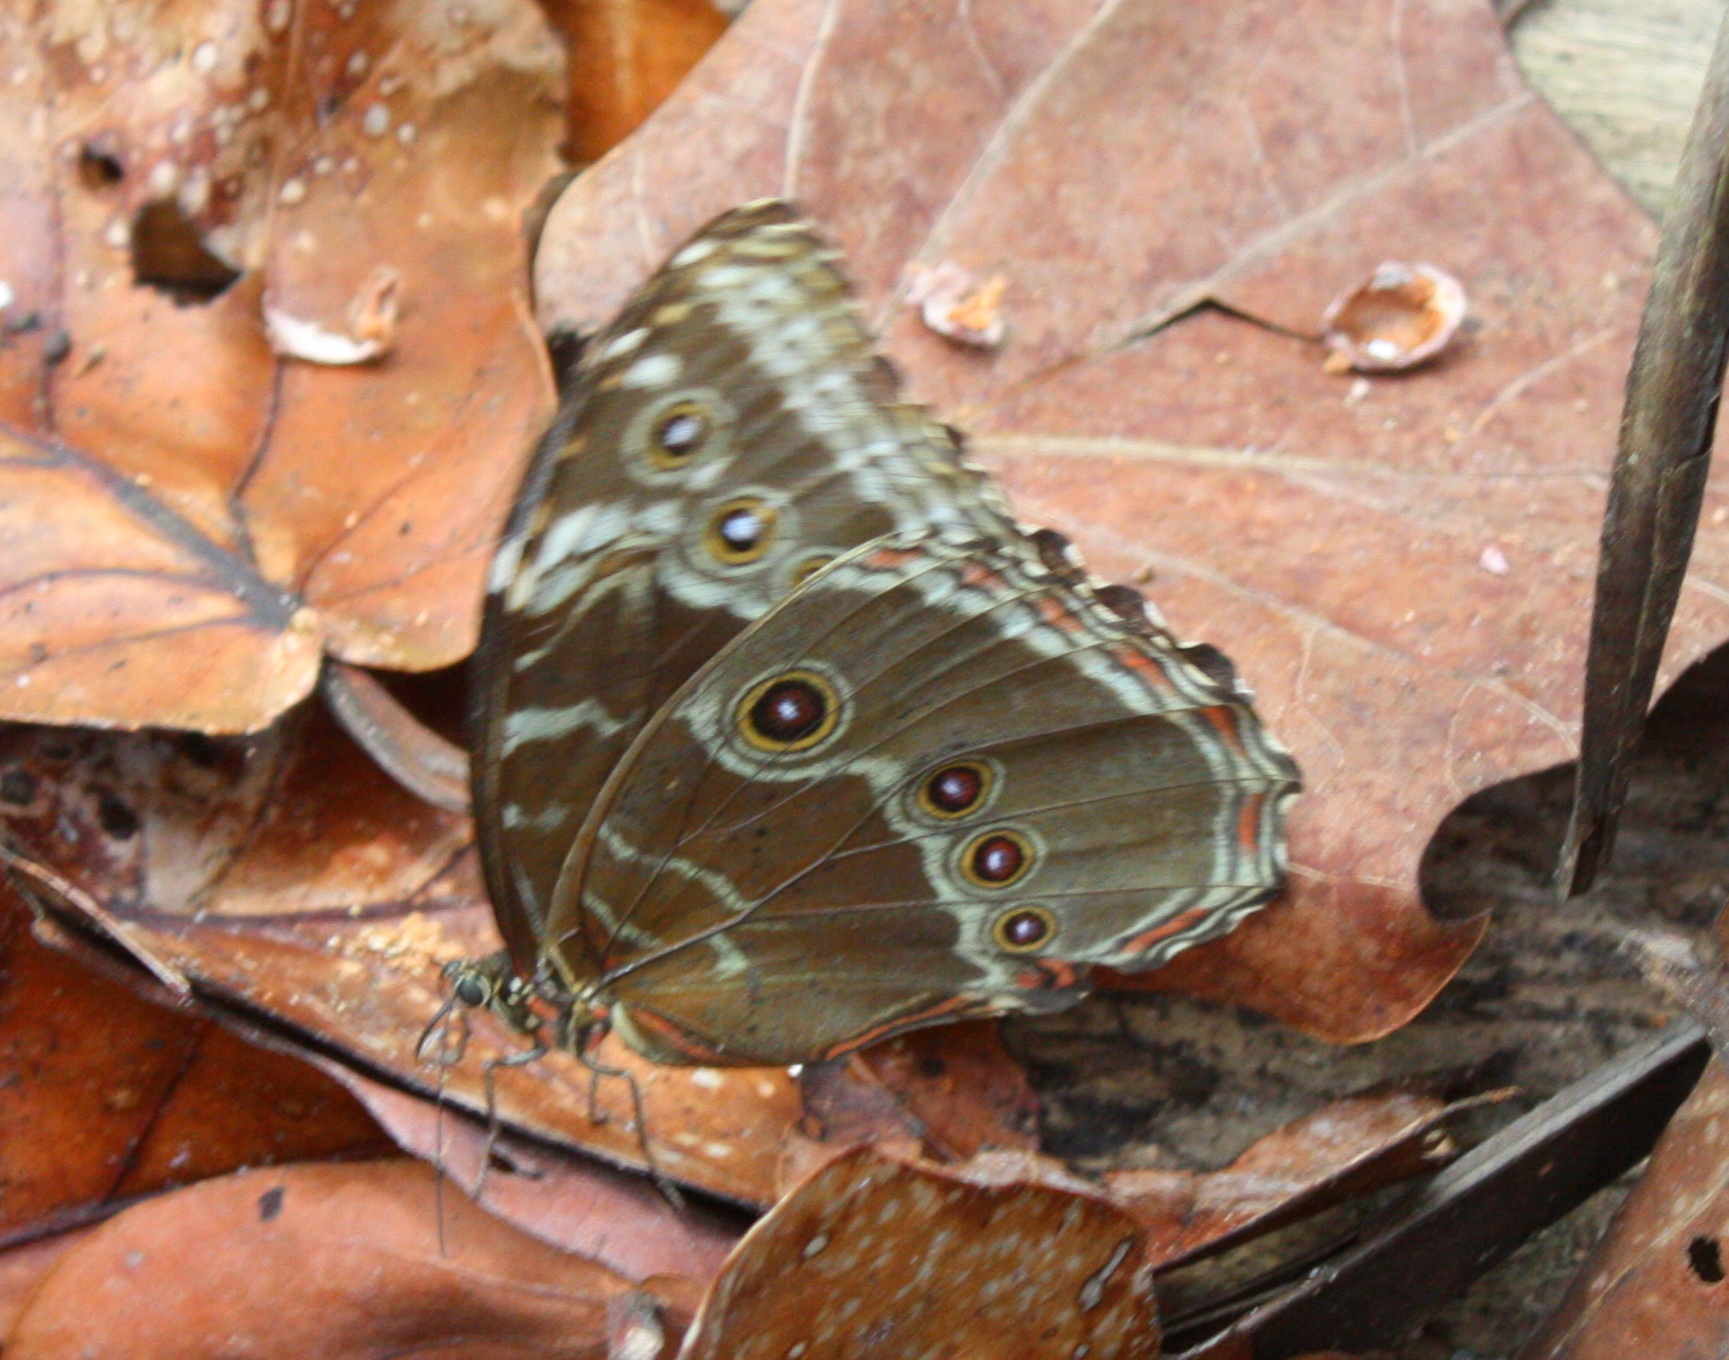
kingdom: Animalia
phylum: Arthropoda
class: Insecta
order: Lepidoptera
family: Nymphalidae
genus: Morpho
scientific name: Morpho helenor
